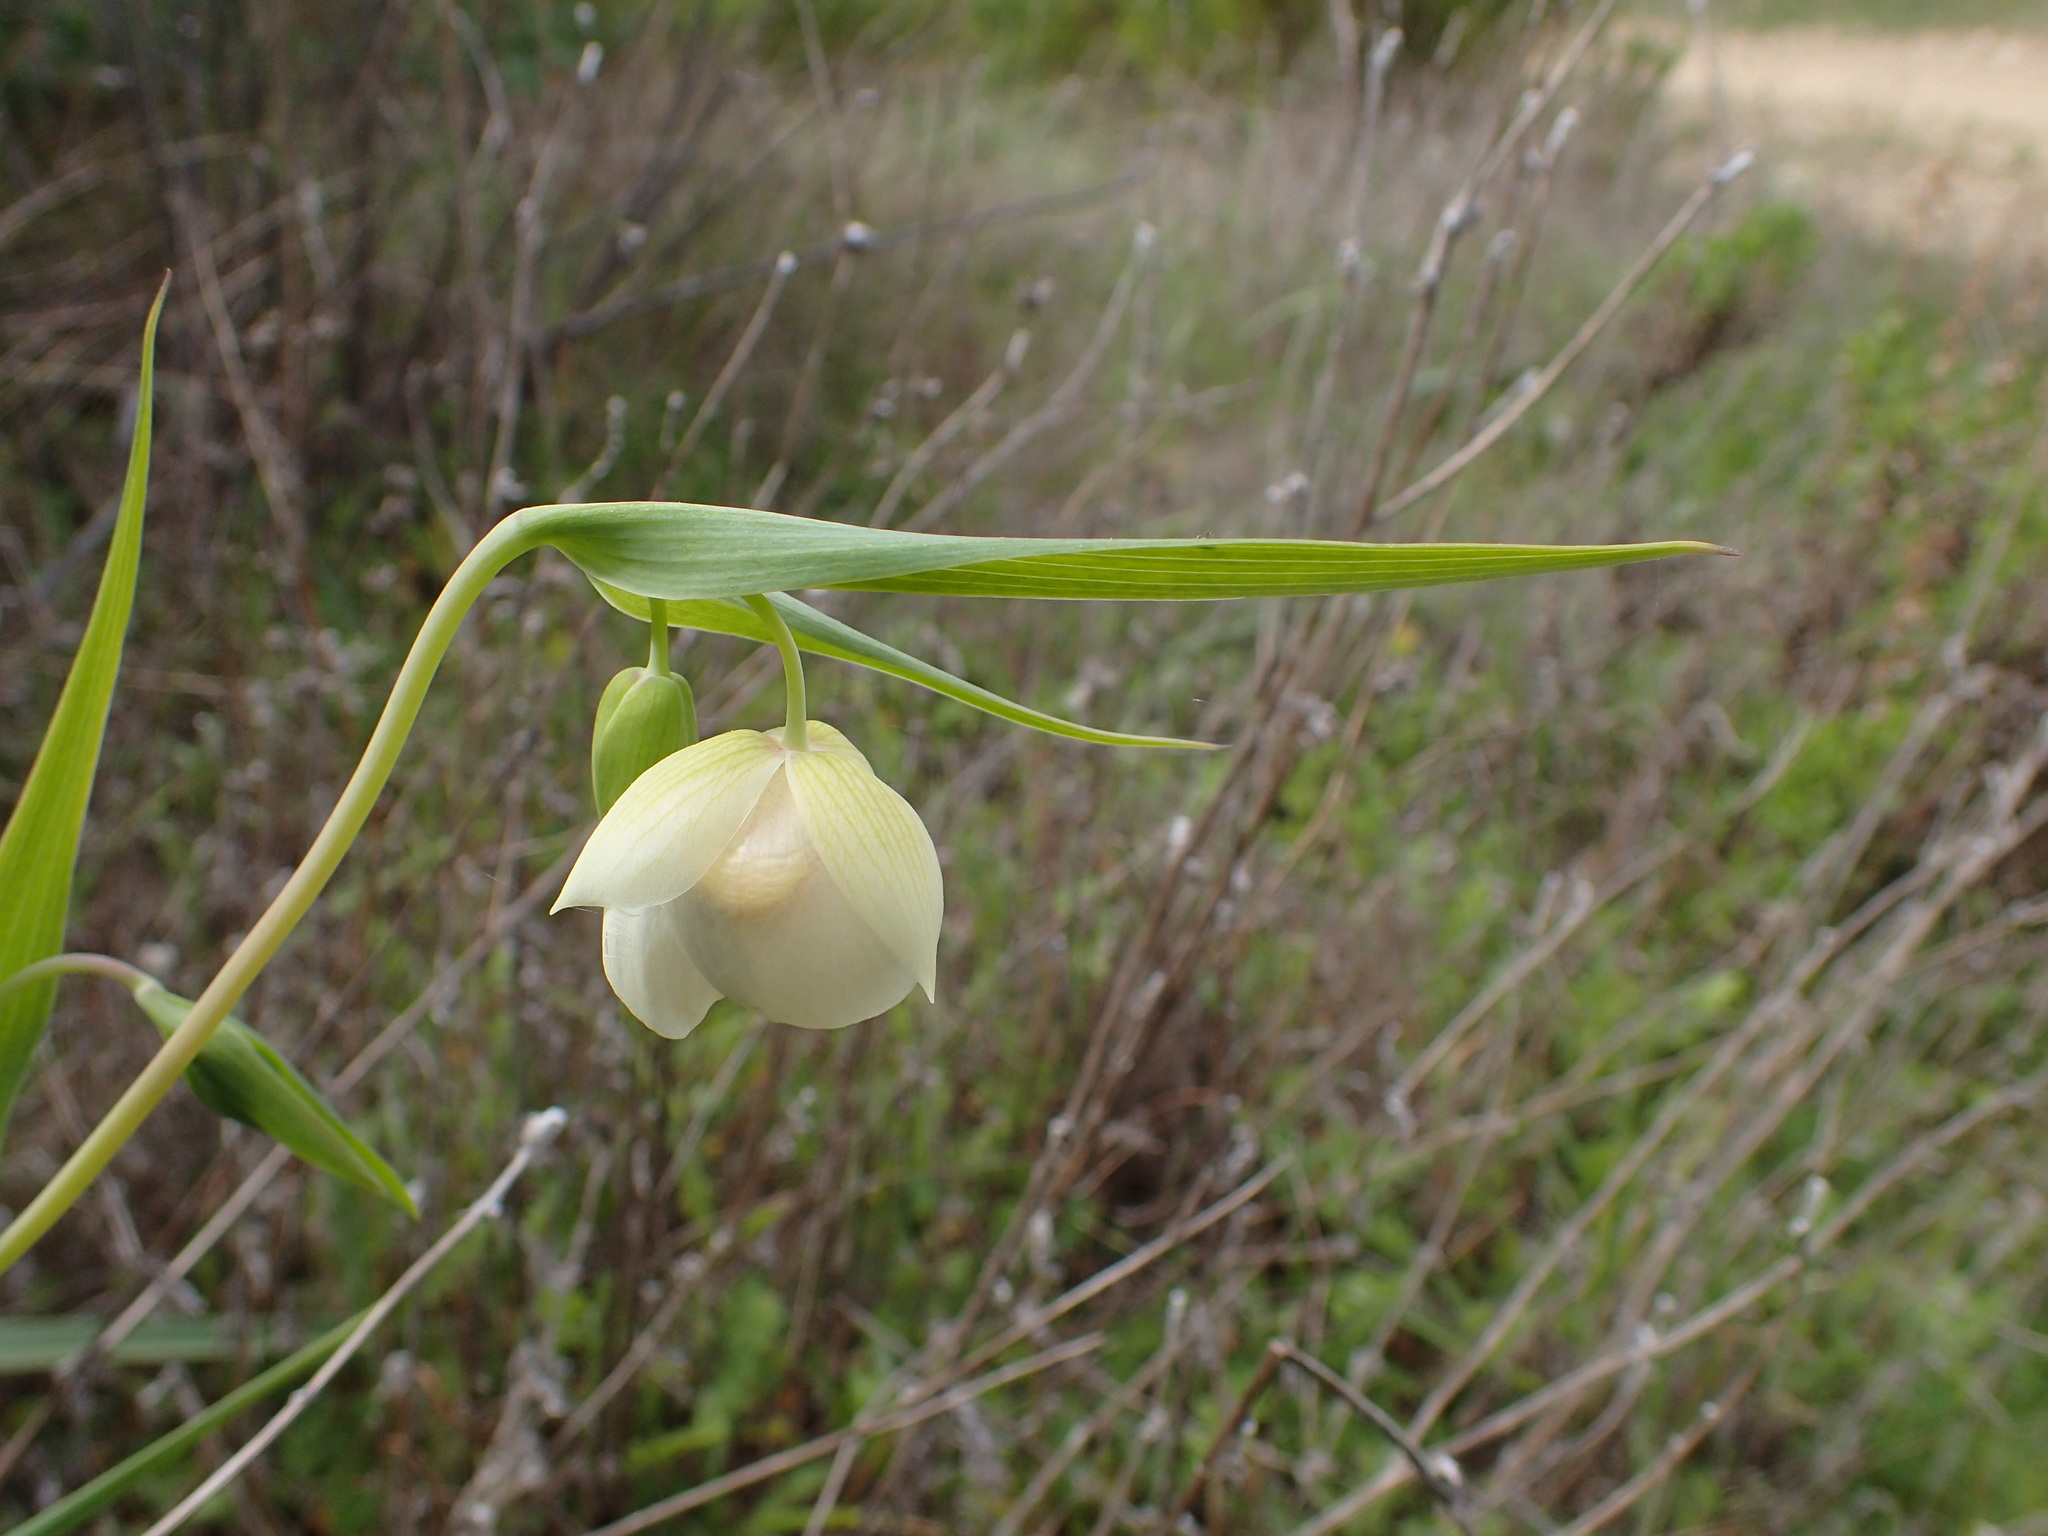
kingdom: Plantae
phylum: Tracheophyta
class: Liliopsida
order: Liliales
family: Liliaceae
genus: Calochortus
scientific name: Calochortus albus
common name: Fairy-lantern
